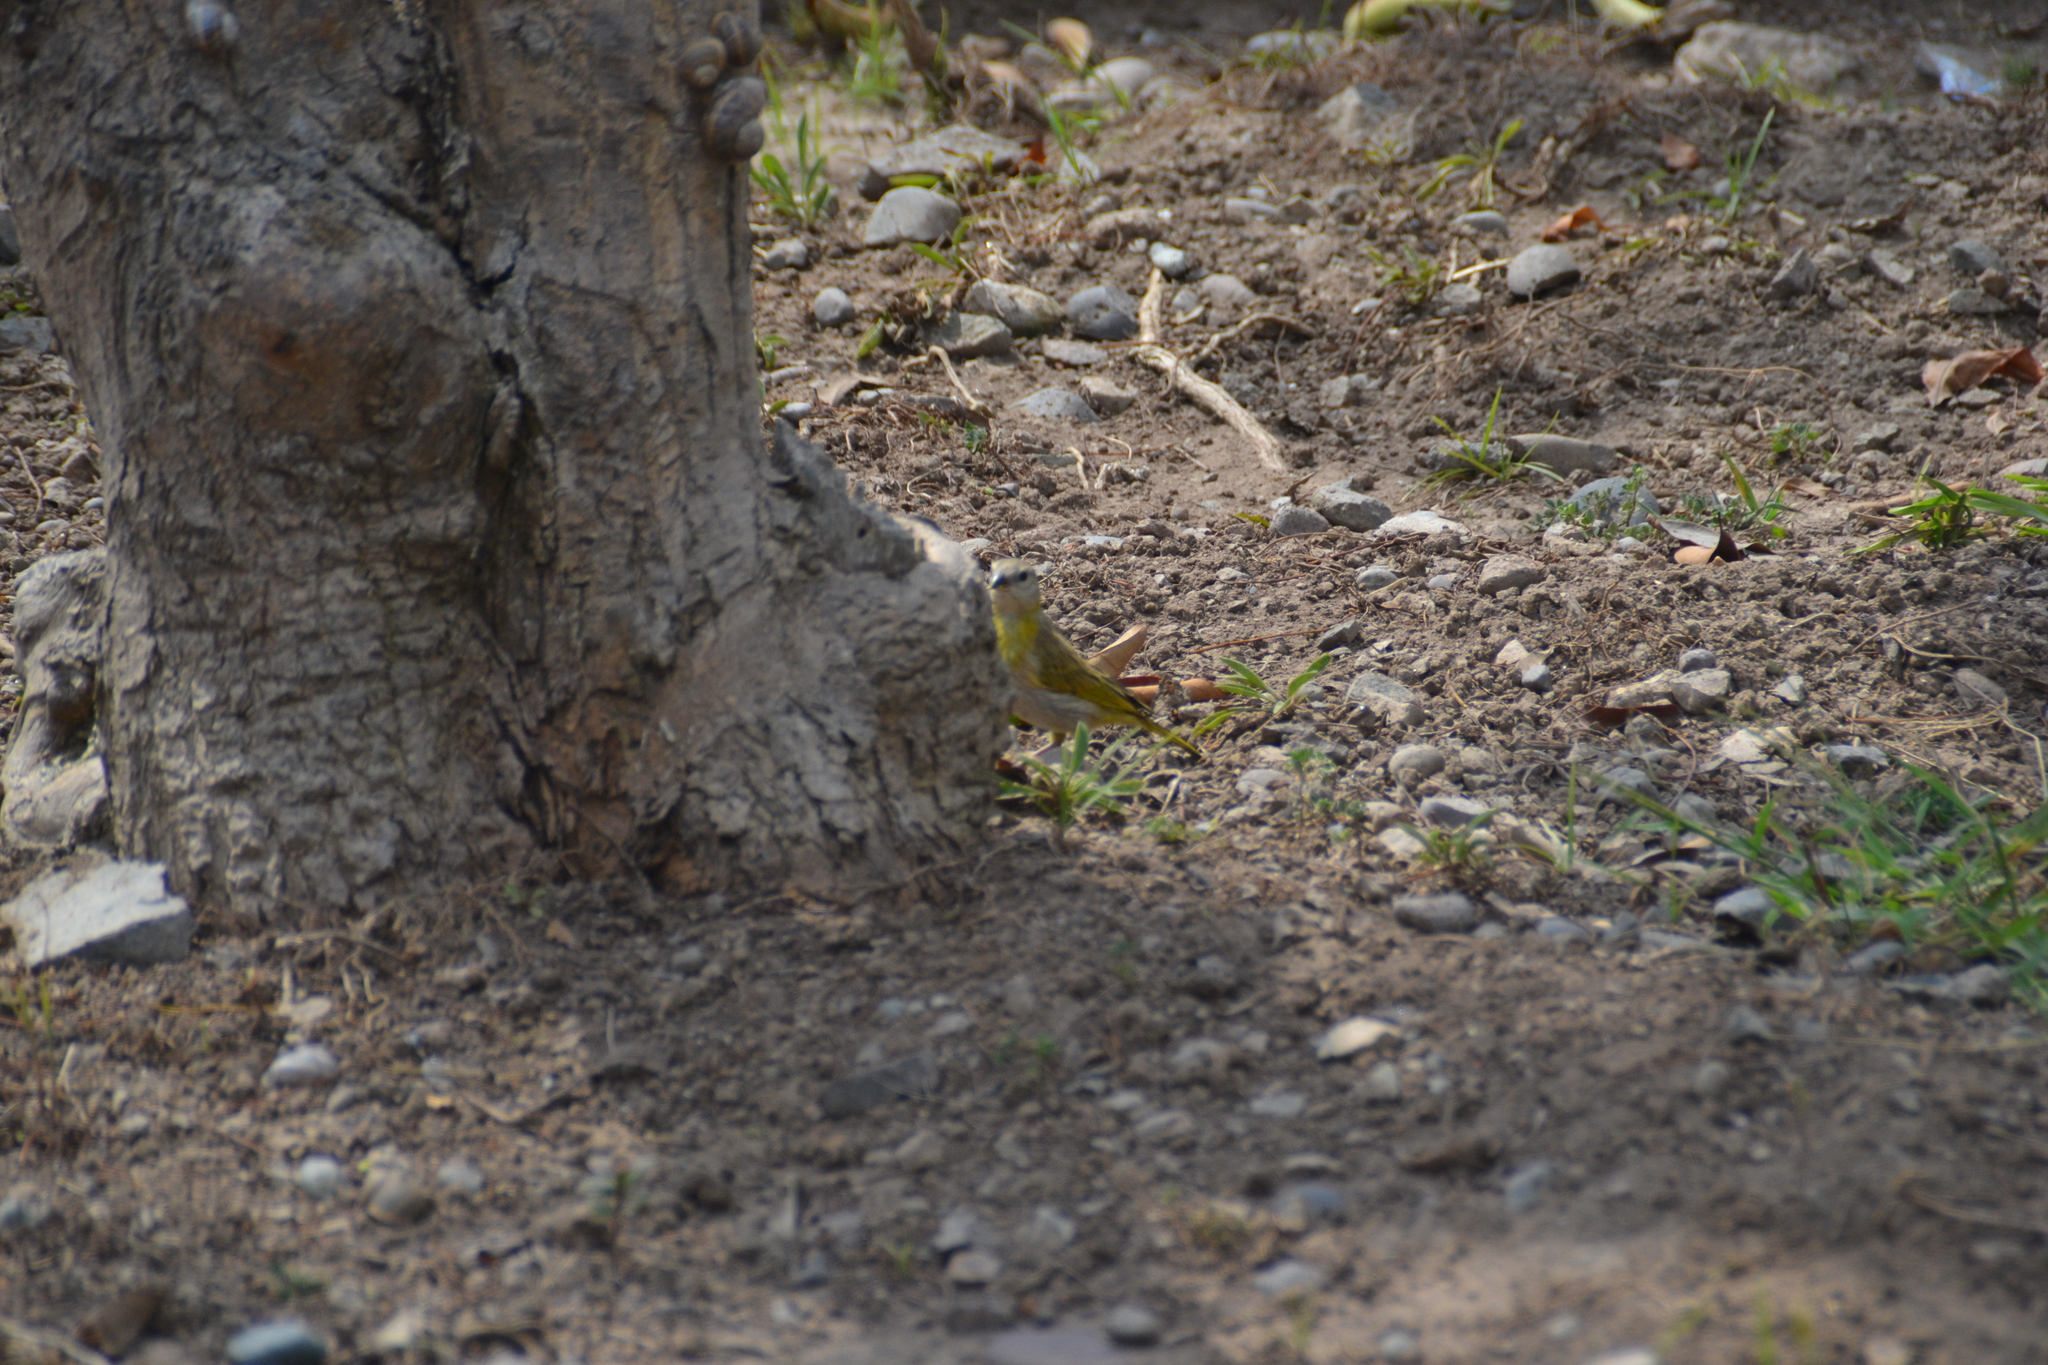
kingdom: Animalia
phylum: Chordata
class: Aves
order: Passeriformes
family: Thraupidae
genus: Sicalis
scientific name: Sicalis flaveola
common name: Saffron finch
